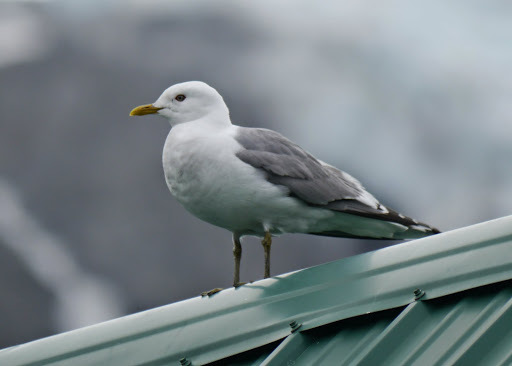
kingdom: Animalia
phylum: Chordata
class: Aves
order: Charadriiformes
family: Laridae
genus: Larus
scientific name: Larus brachyrhynchus
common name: Short-billed gull
